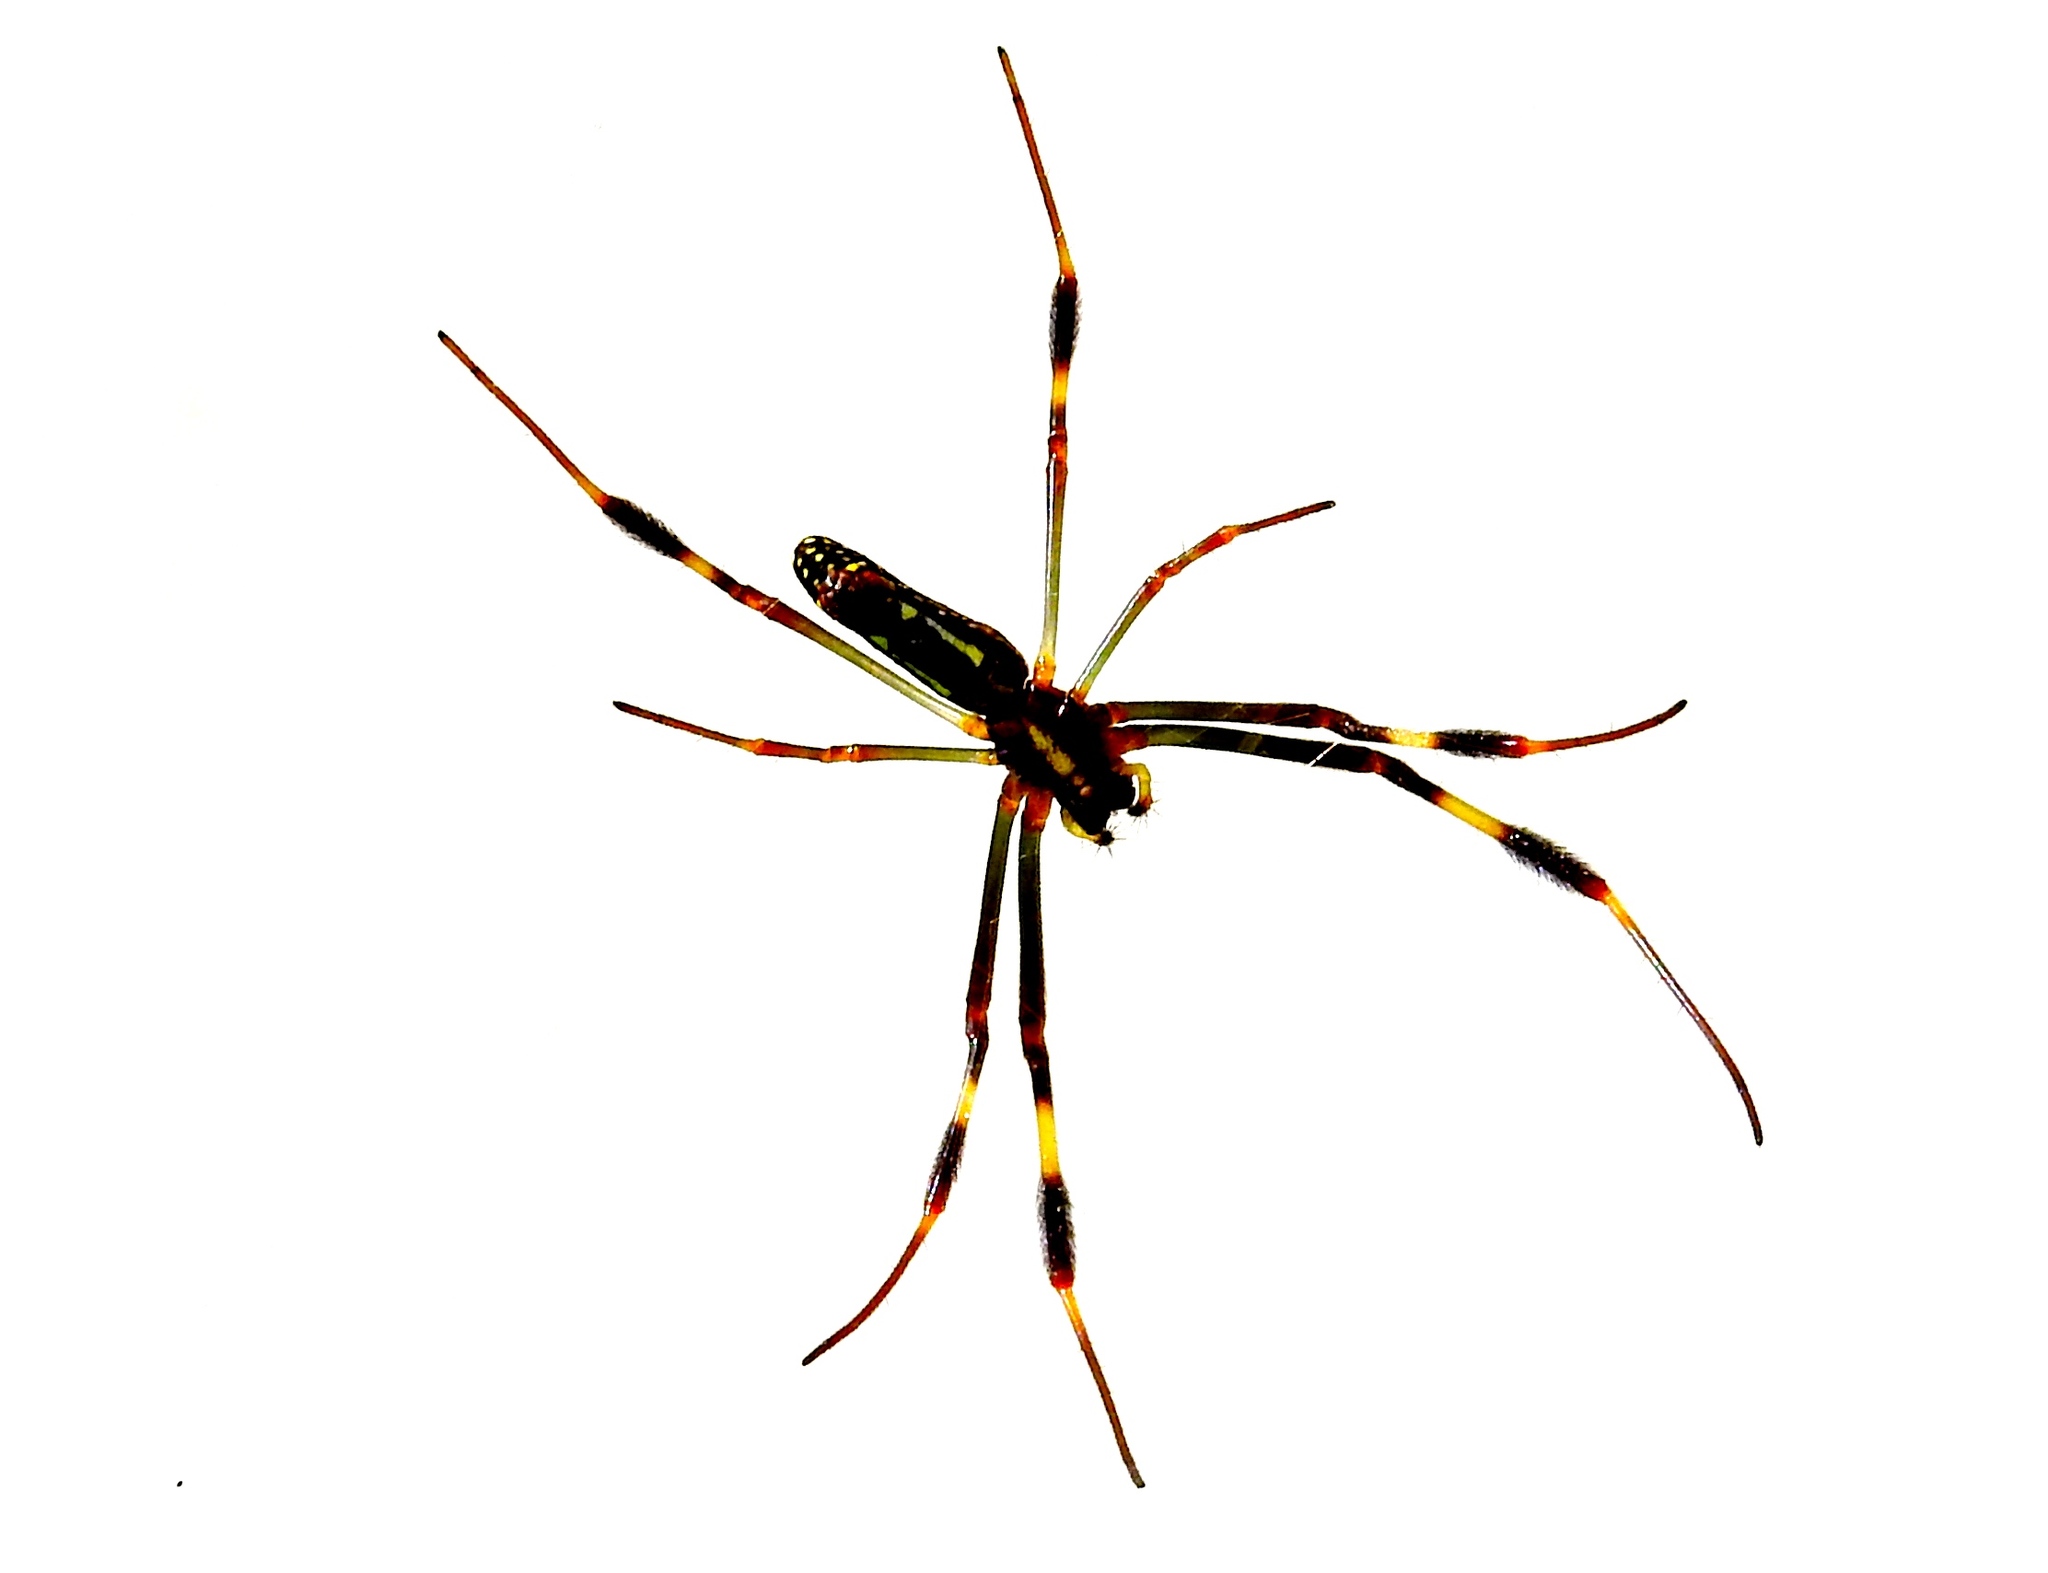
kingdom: Animalia
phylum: Arthropoda
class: Arachnida
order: Araneae
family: Araneidae
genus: Trichonephila
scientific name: Trichonephila clavipes
